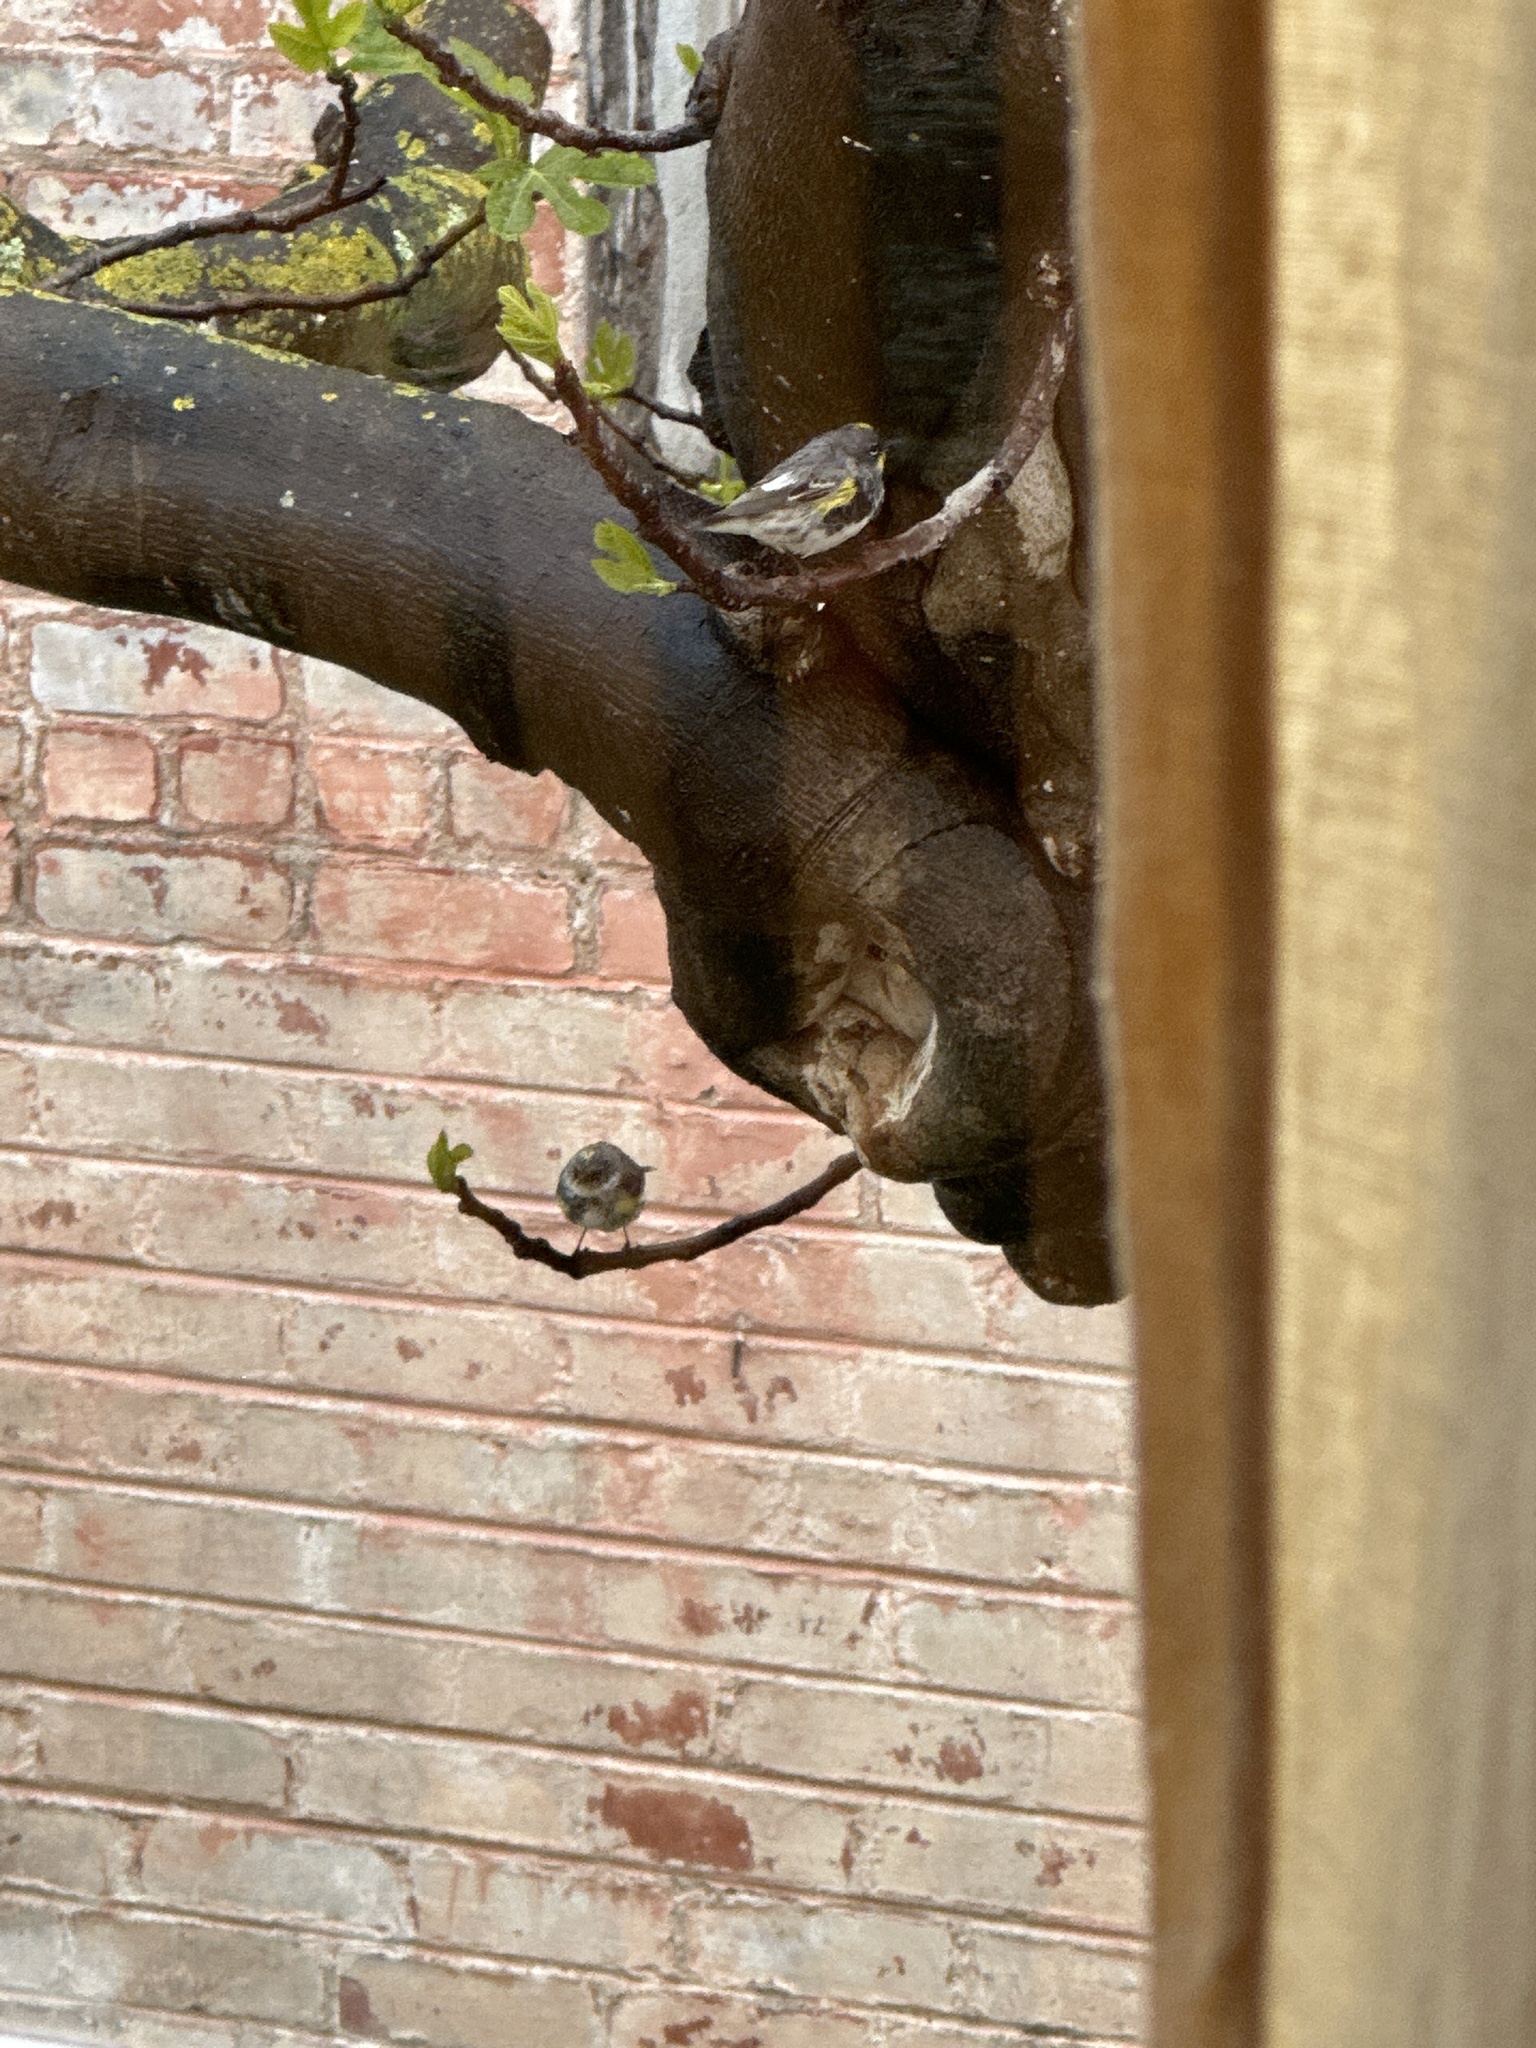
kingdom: Animalia
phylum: Chordata
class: Aves
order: Passeriformes
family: Parulidae
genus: Setophaga
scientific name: Setophaga coronata
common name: Myrtle warbler
